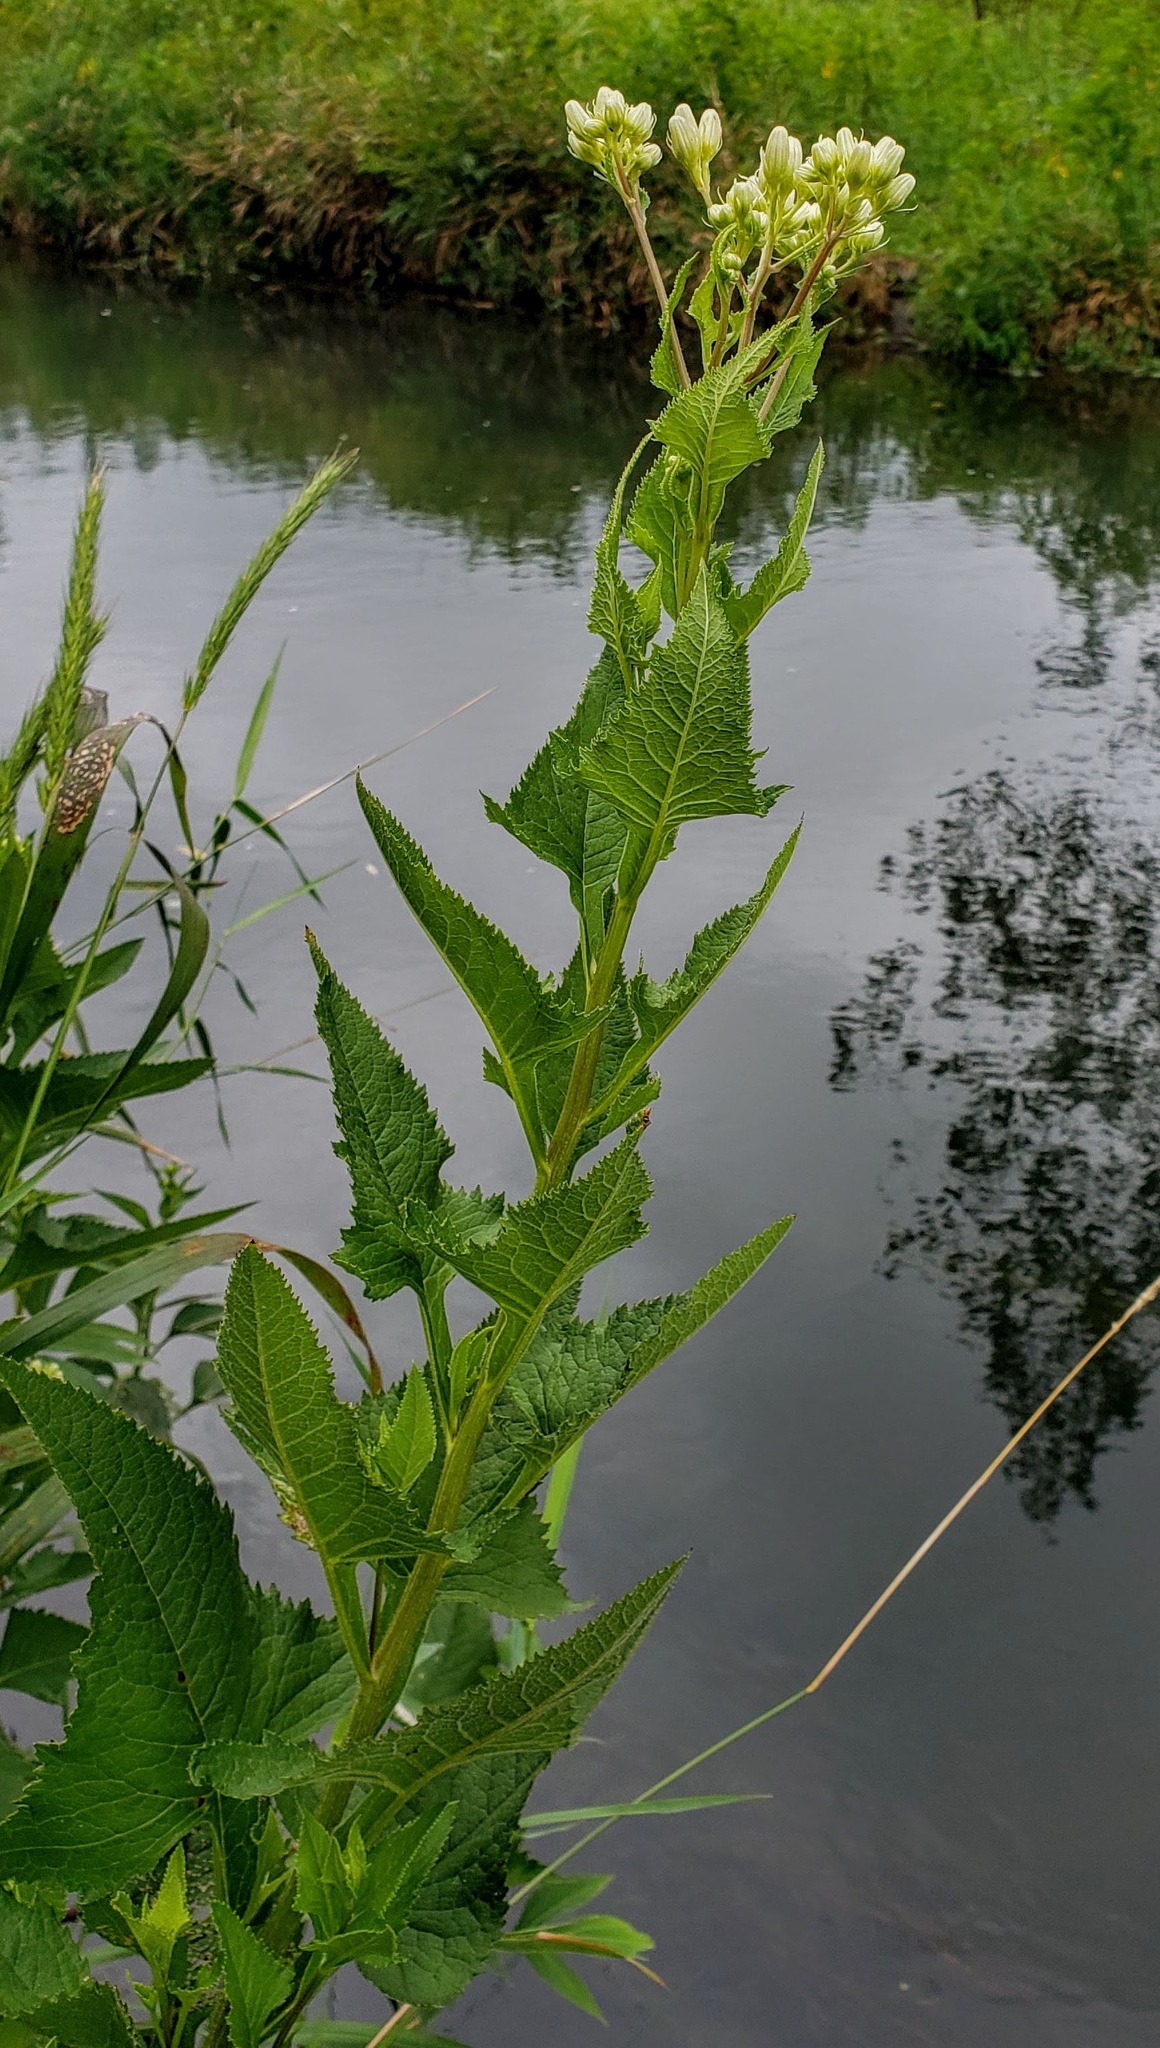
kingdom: Plantae
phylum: Tracheophyta
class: Magnoliopsida
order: Asterales
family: Asteraceae
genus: Hasteola
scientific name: Hasteola suaveolens
